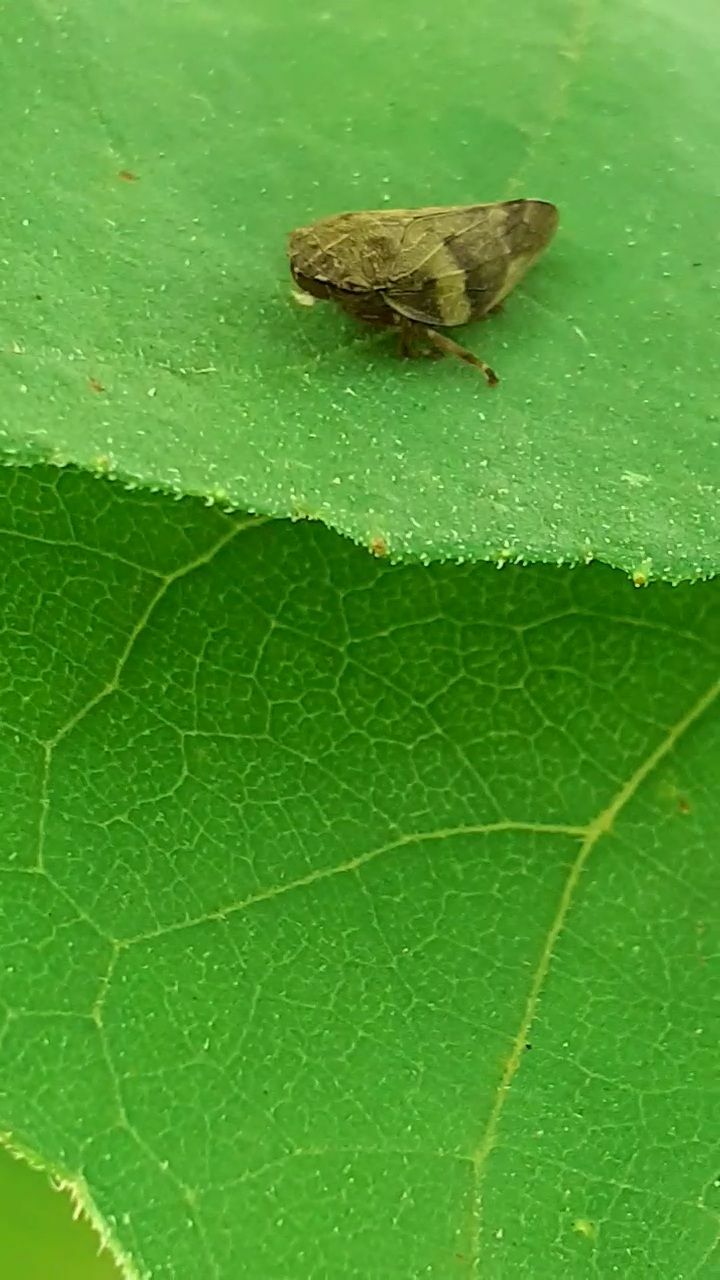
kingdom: Animalia
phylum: Arthropoda
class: Insecta
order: Hemiptera
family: Aphrophoridae
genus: Aphrophora
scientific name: Aphrophora alni
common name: European alder spittlebug
